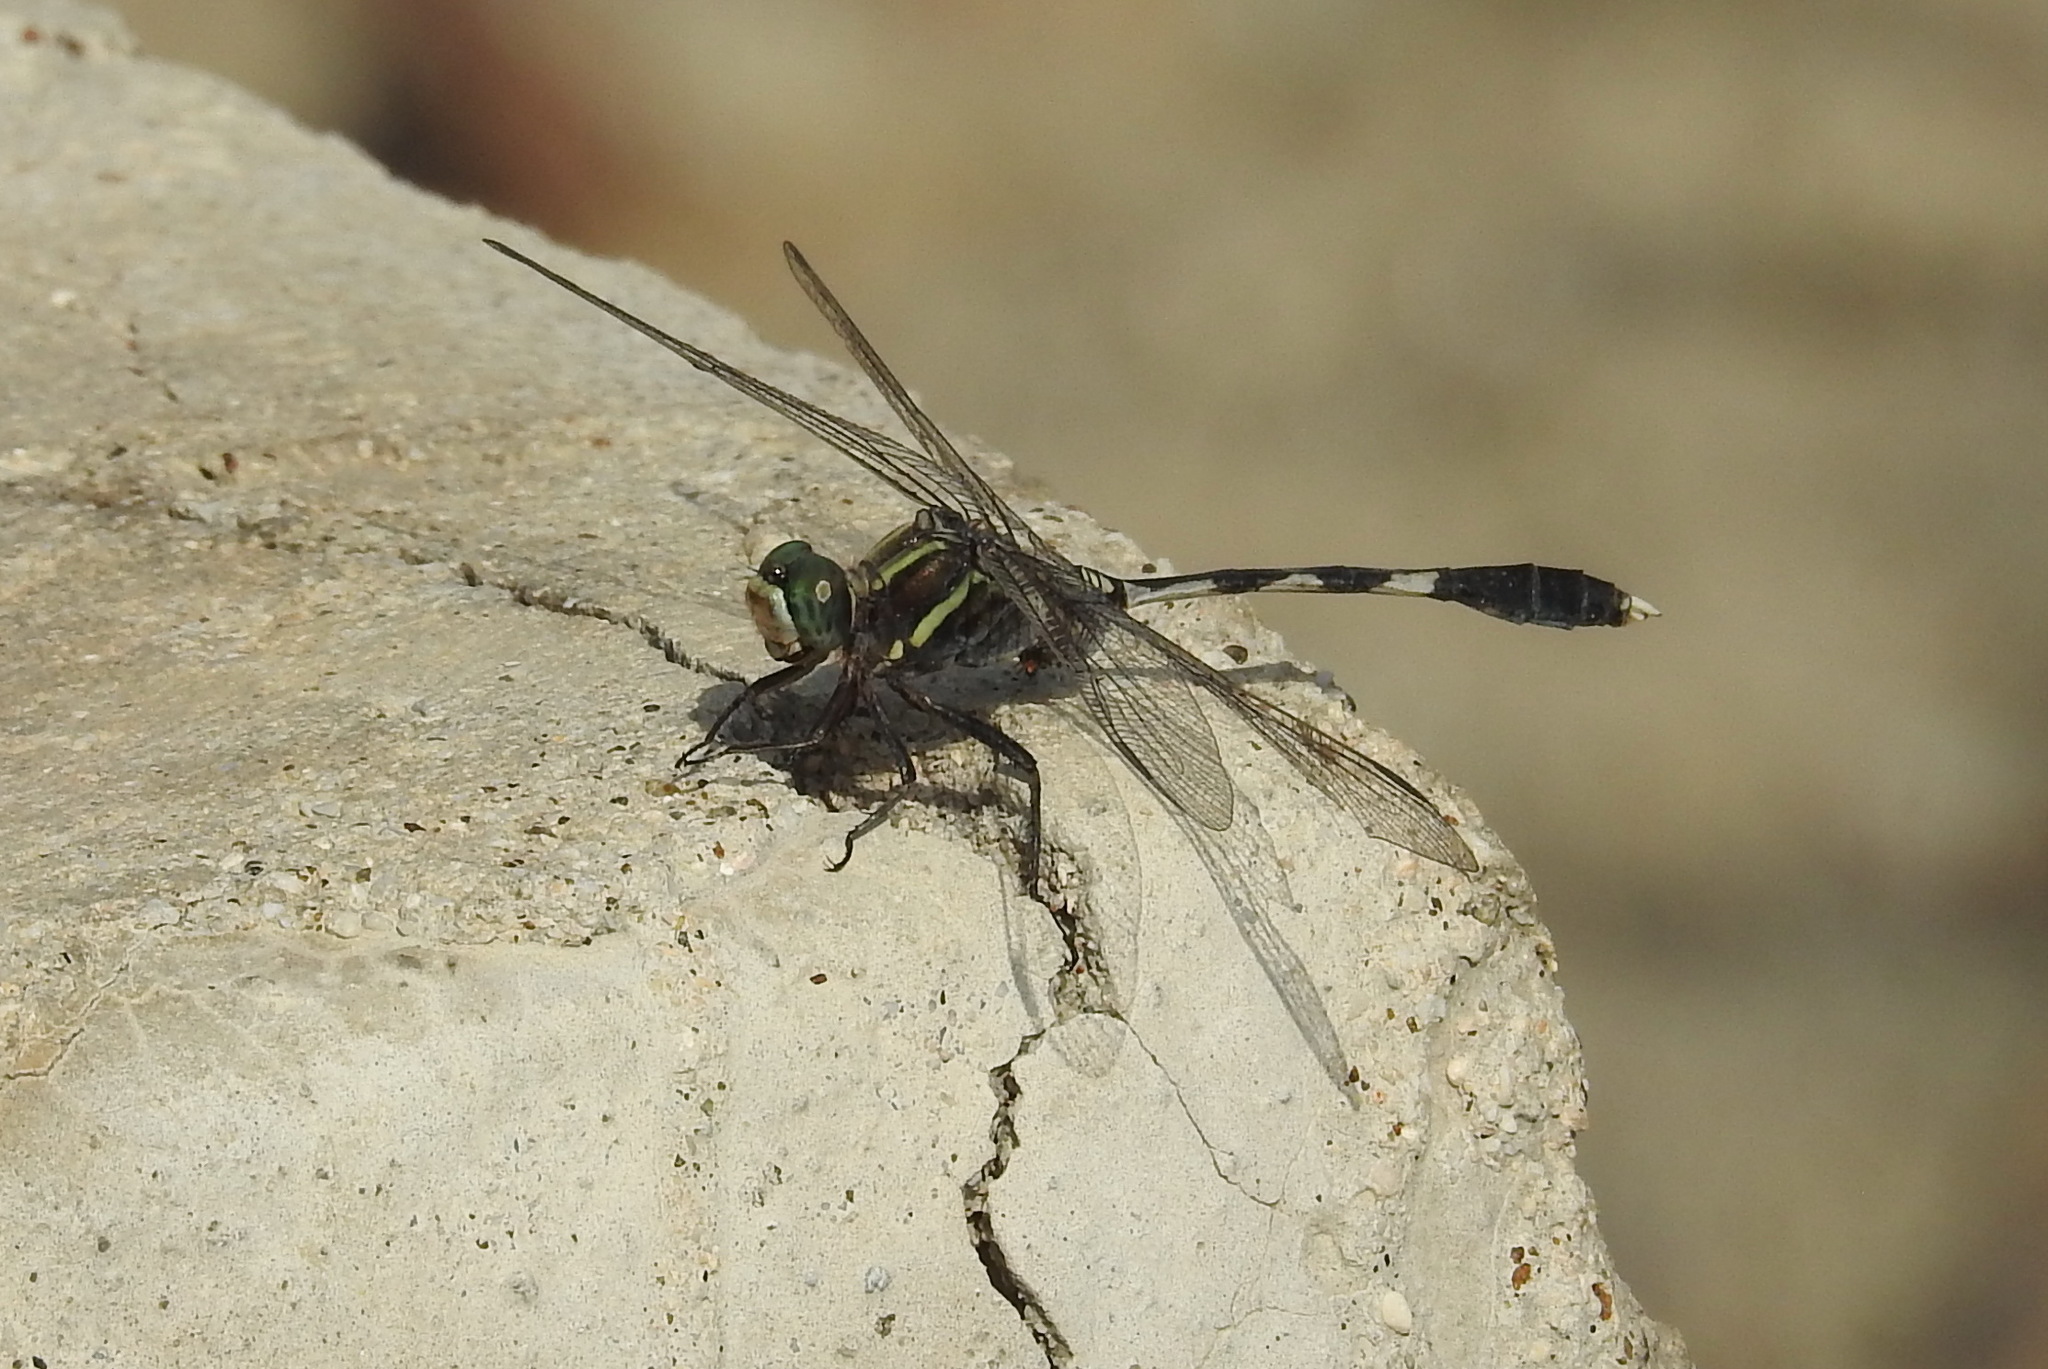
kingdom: Animalia
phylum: Arthropoda
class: Insecta
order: Odonata
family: Libellulidae
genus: Orthetrum
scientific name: Orthetrum sabina
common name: Slender skimmer
